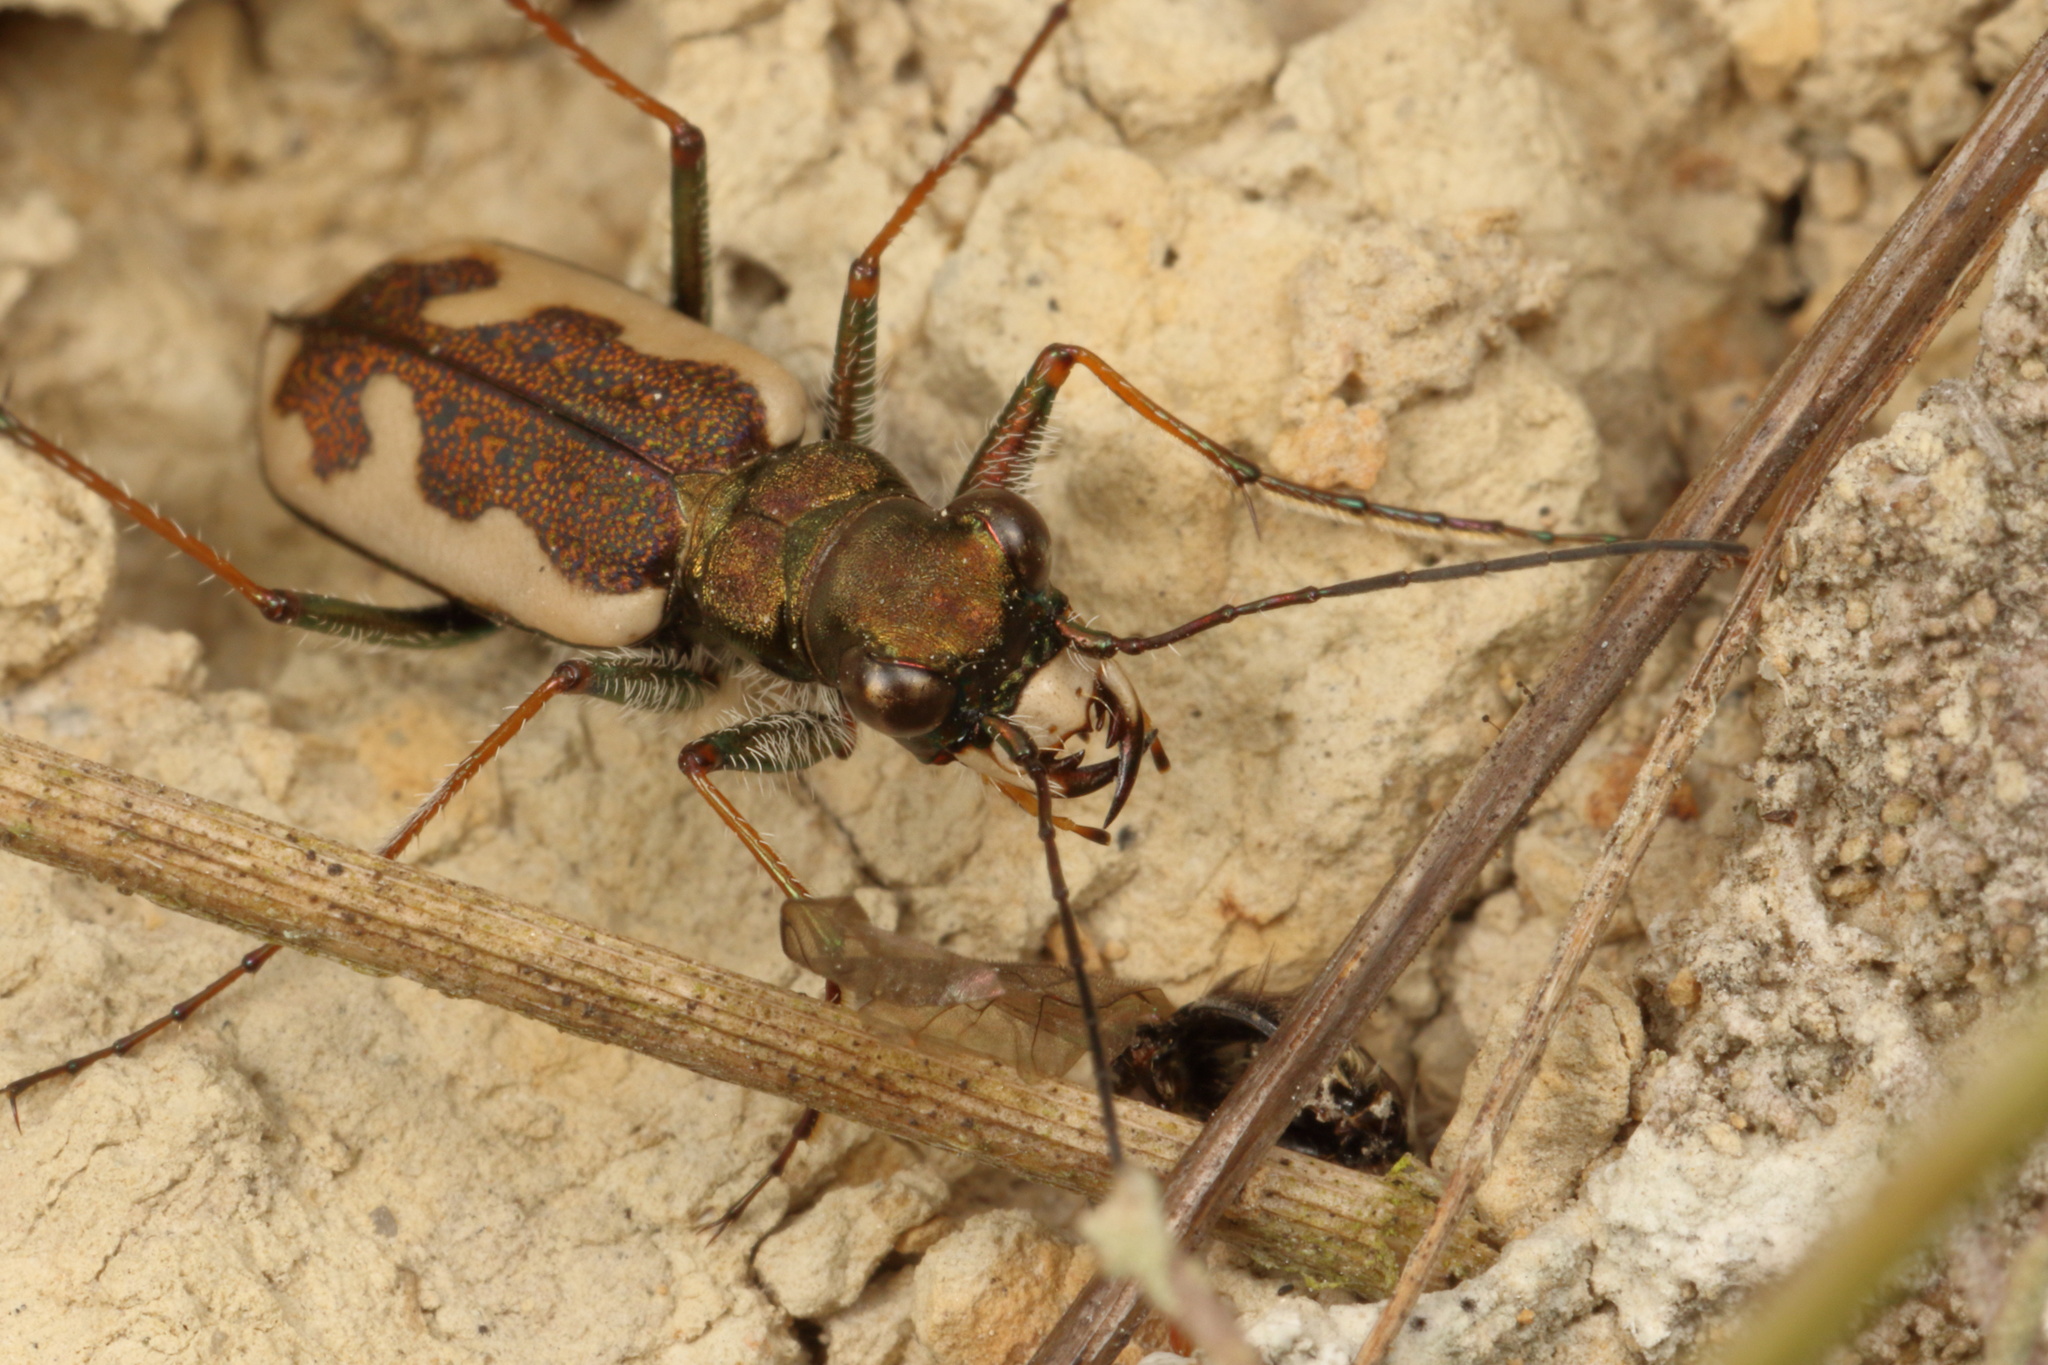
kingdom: Animalia
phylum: Arthropoda
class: Insecta
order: Coleoptera
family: Carabidae
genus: Neocicindela
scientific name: Neocicindela latecincta
